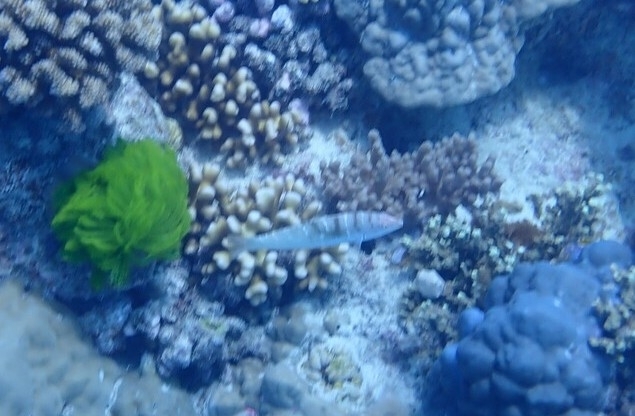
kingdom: Animalia
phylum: Chordata
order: Perciformes
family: Labridae
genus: Coris
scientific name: Coris batuensis
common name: Batu coris
